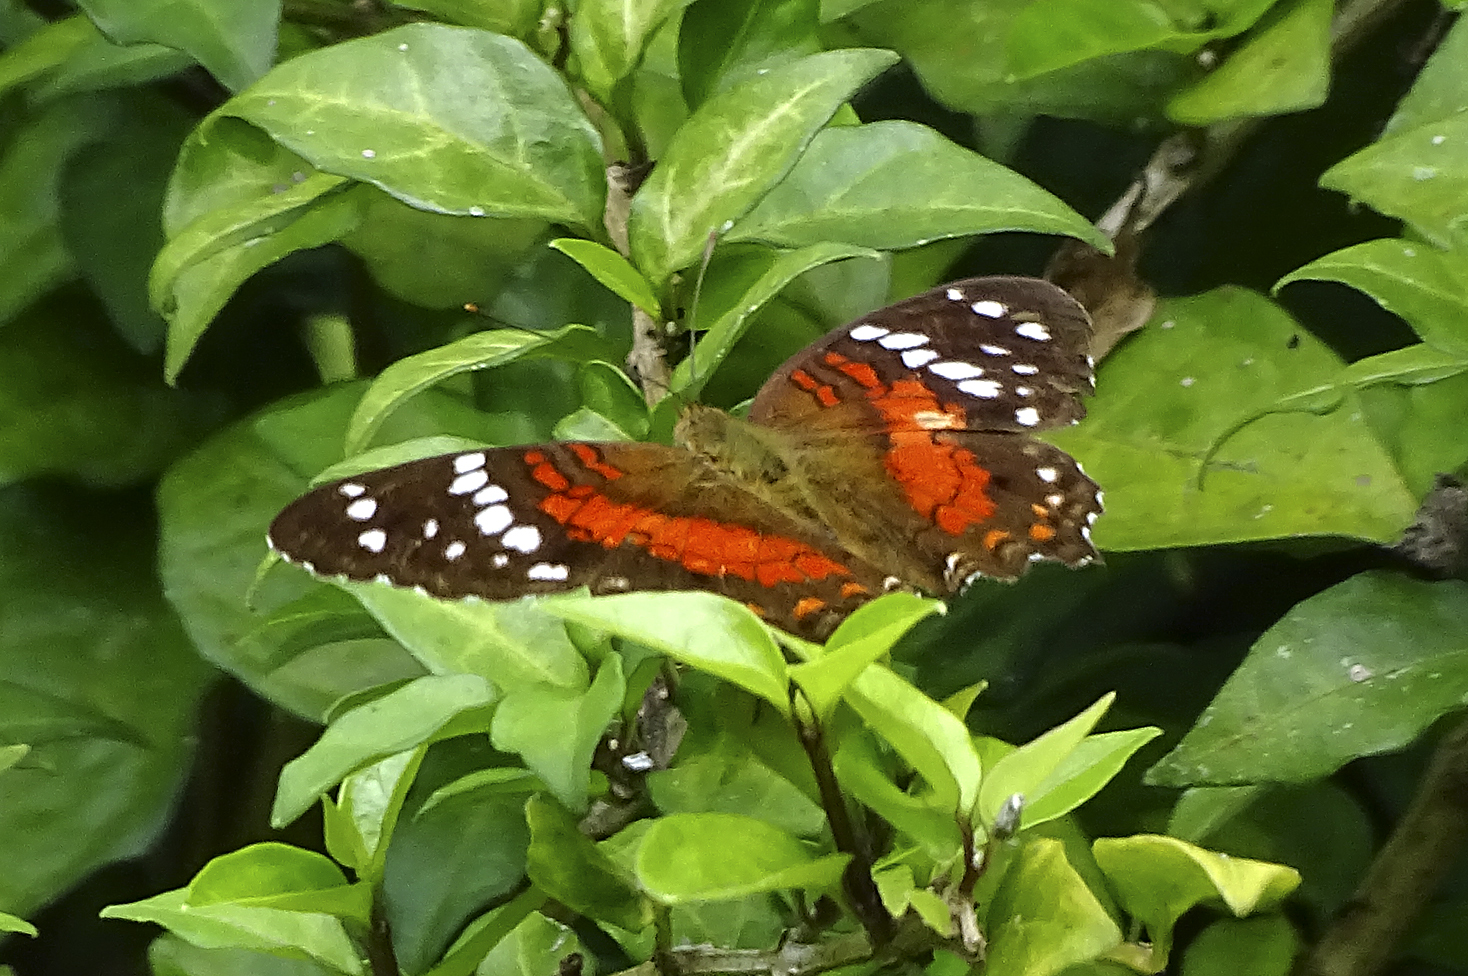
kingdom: Animalia
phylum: Arthropoda
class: Insecta
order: Lepidoptera
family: Nymphalidae
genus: Anartia
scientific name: Anartia amathea
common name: Red peacock
